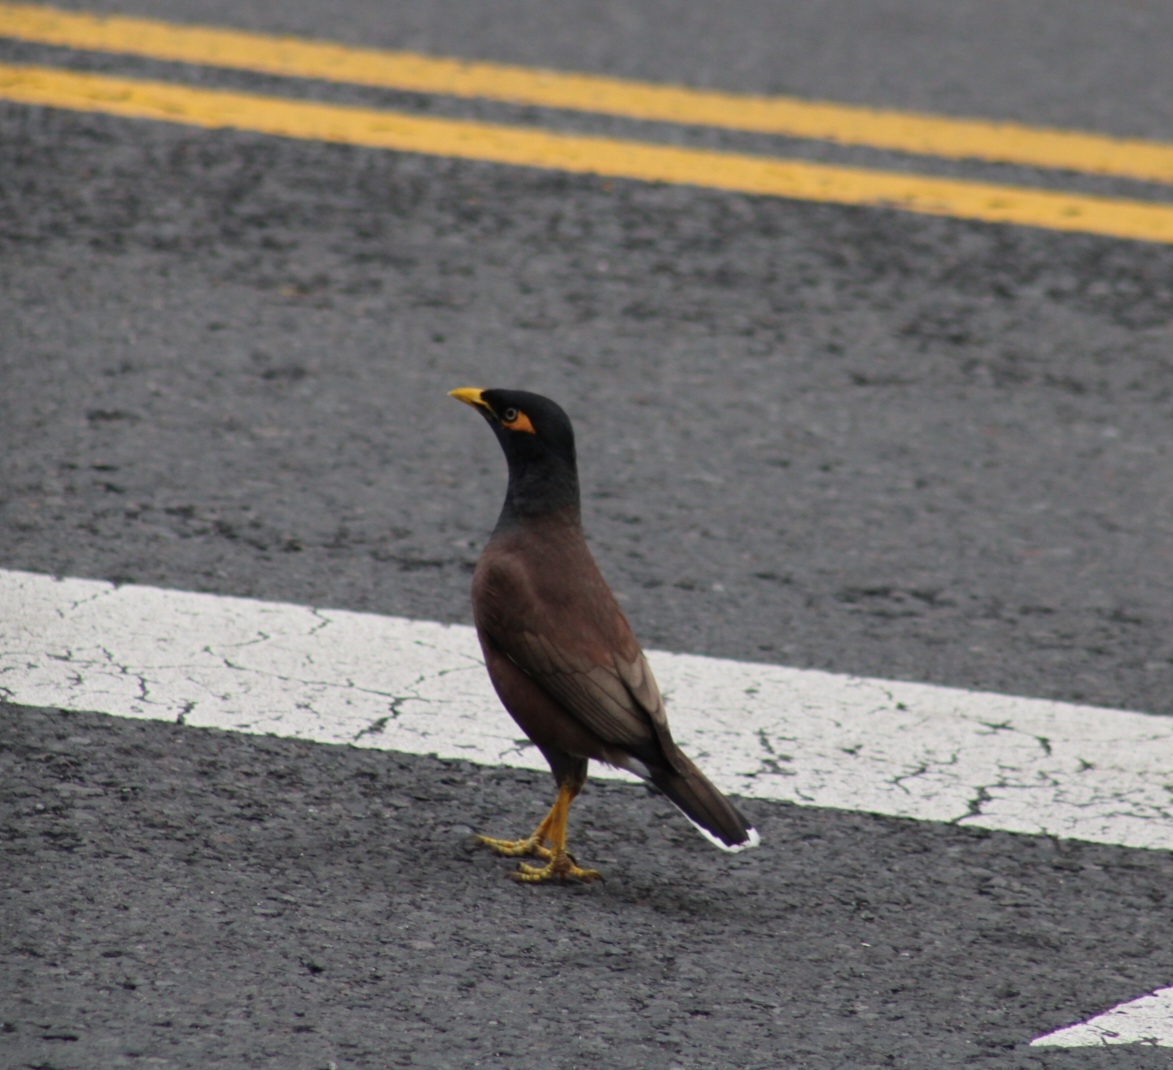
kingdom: Animalia
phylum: Chordata
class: Aves
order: Passeriformes
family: Sturnidae
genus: Acridotheres
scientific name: Acridotheres tristis
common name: Common myna
